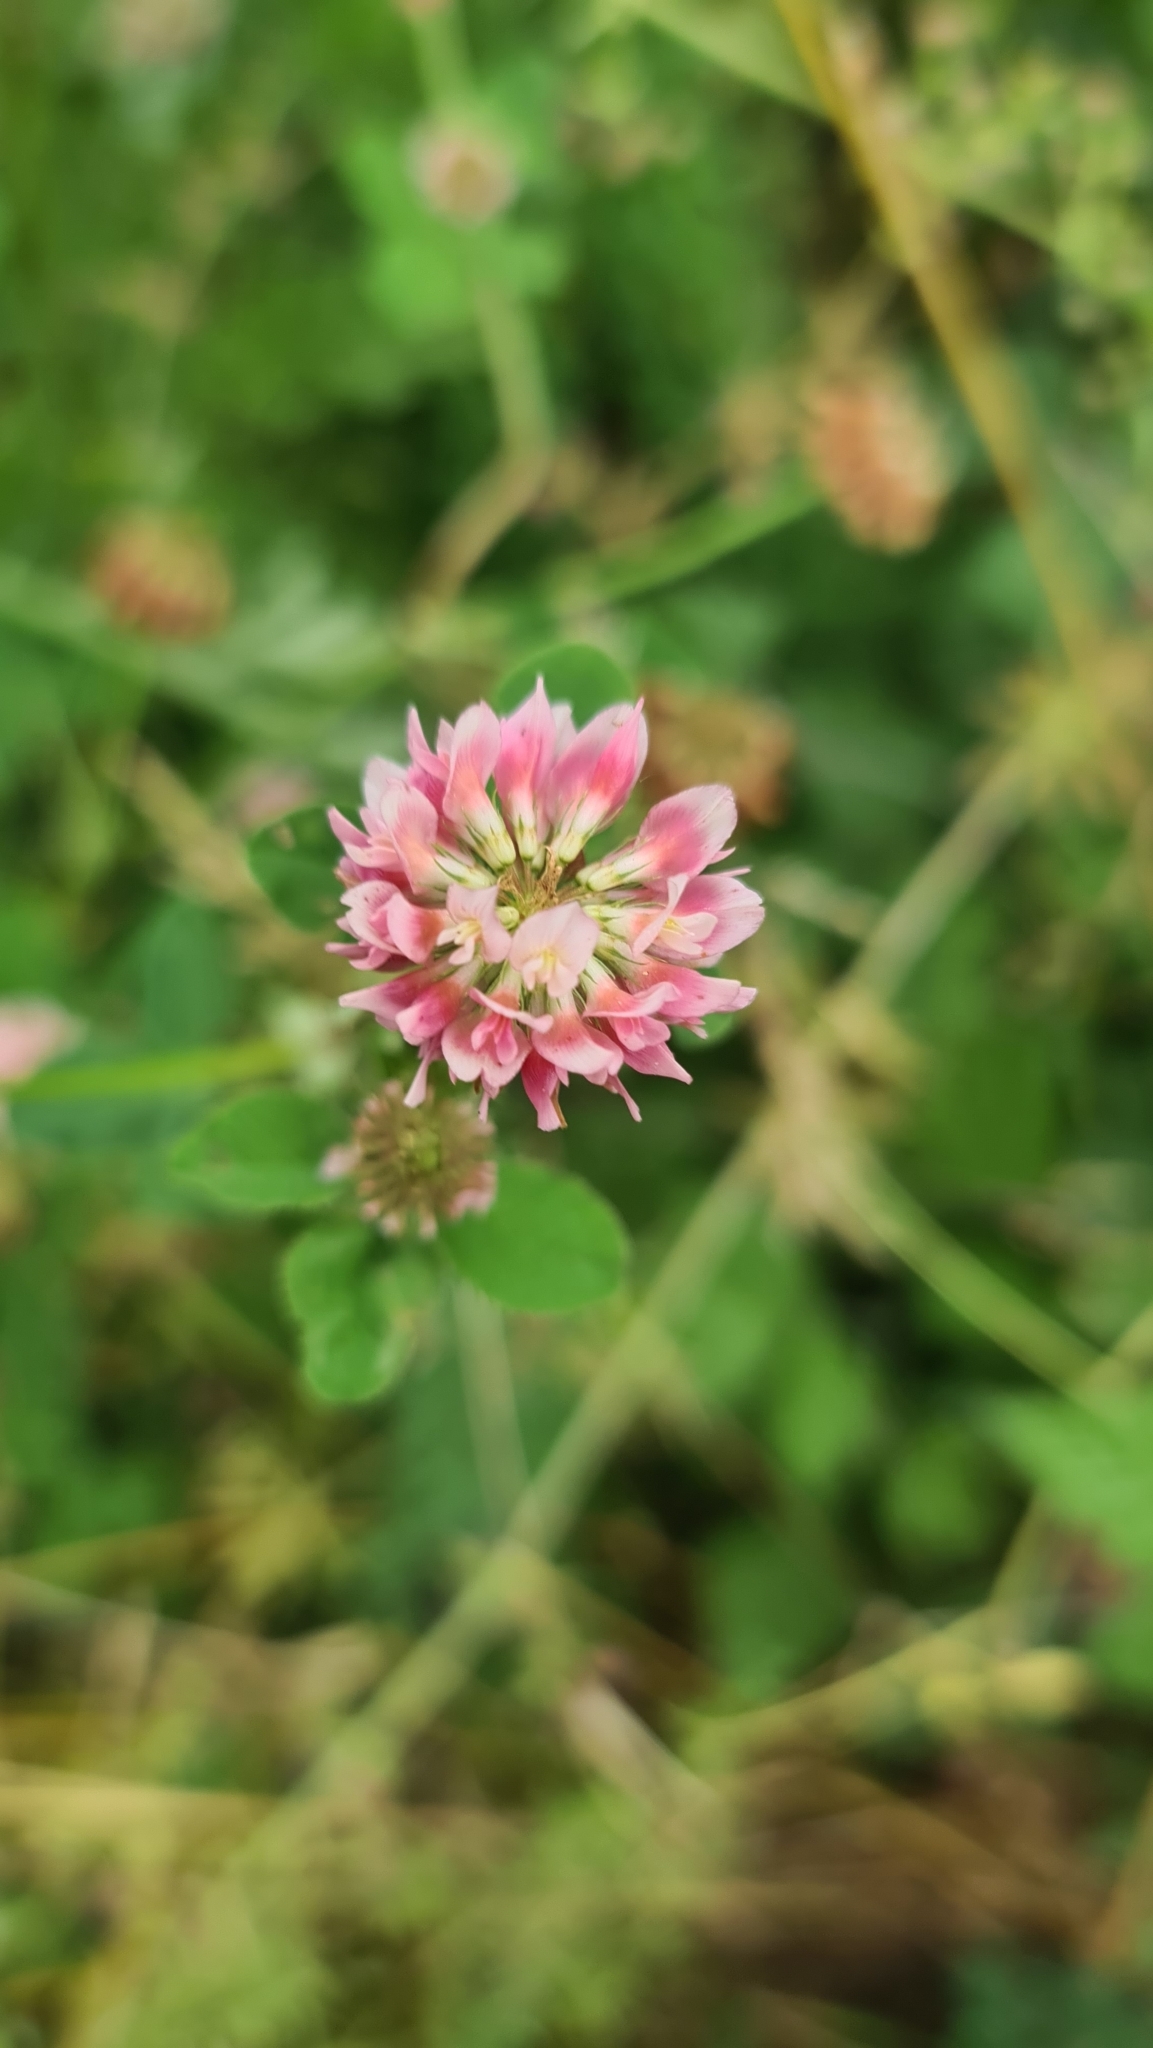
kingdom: Plantae
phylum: Tracheophyta
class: Magnoliopsida
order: Fabales
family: Fabaceae
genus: Trifolium
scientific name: Trifolium hybridum
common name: Alsike clover
